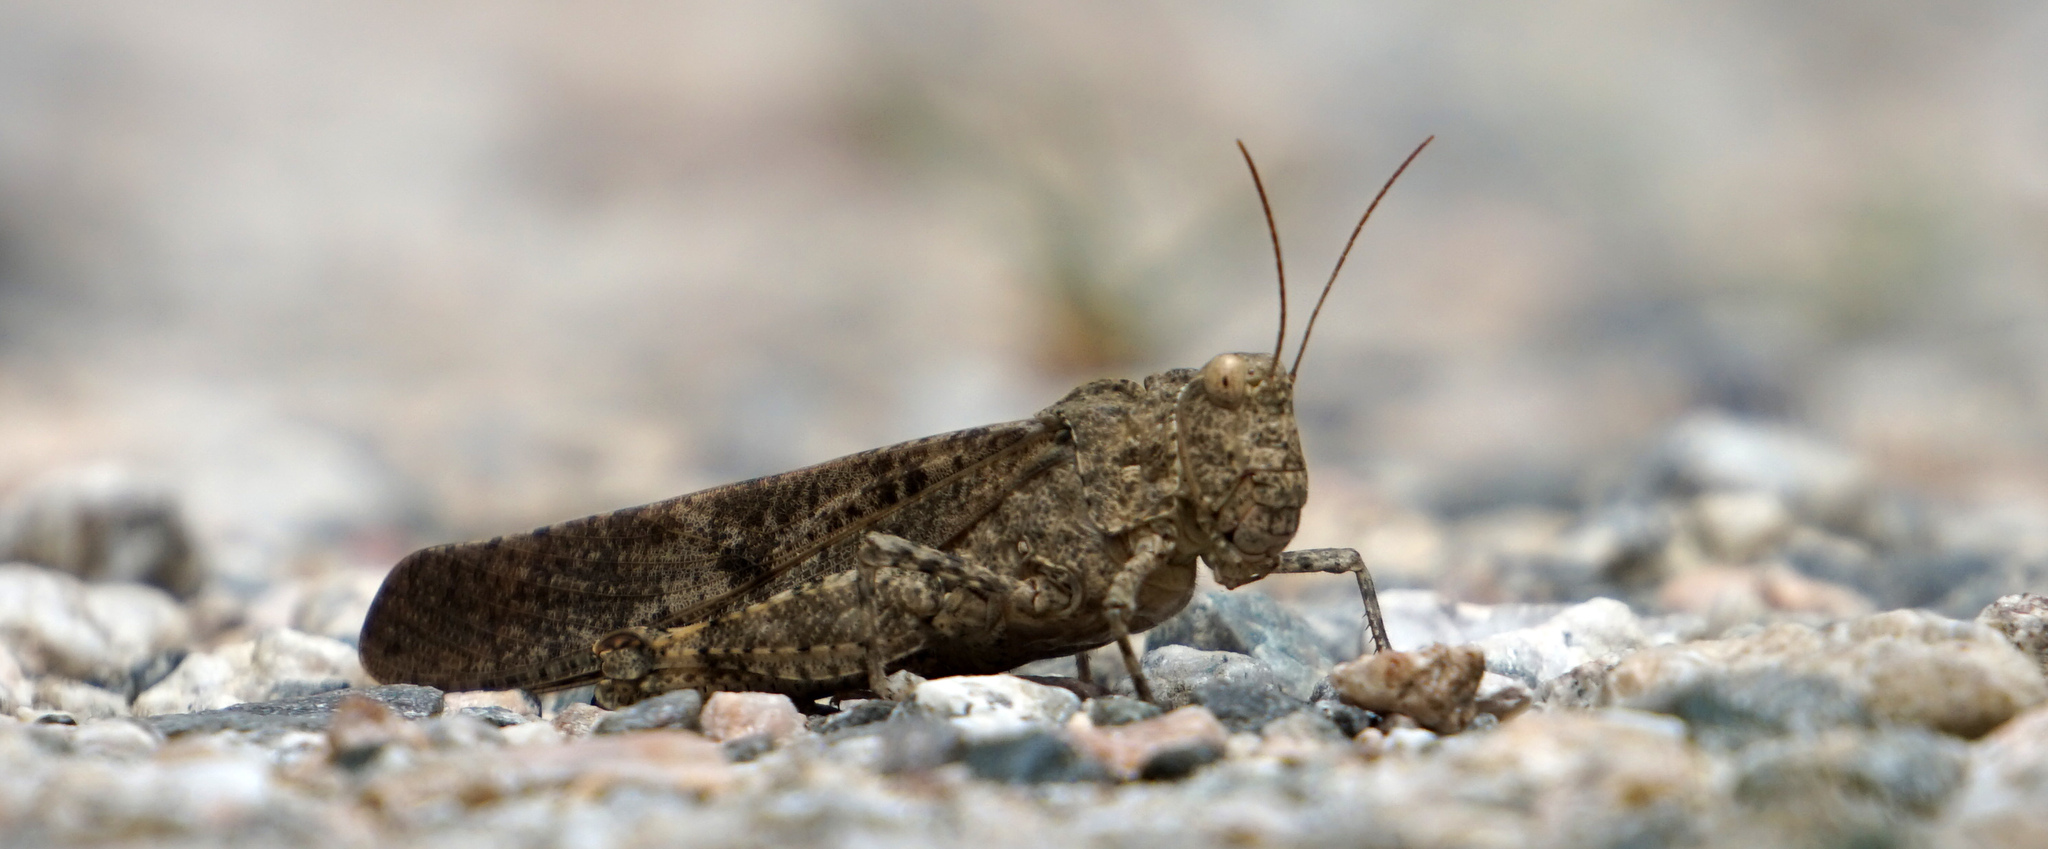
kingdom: Animalia
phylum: Arthropoda
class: Insecta
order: Orthoptera
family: Acrididae
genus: Dissosteira
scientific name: Dissosteira carolina
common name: Carolina grasshopper
